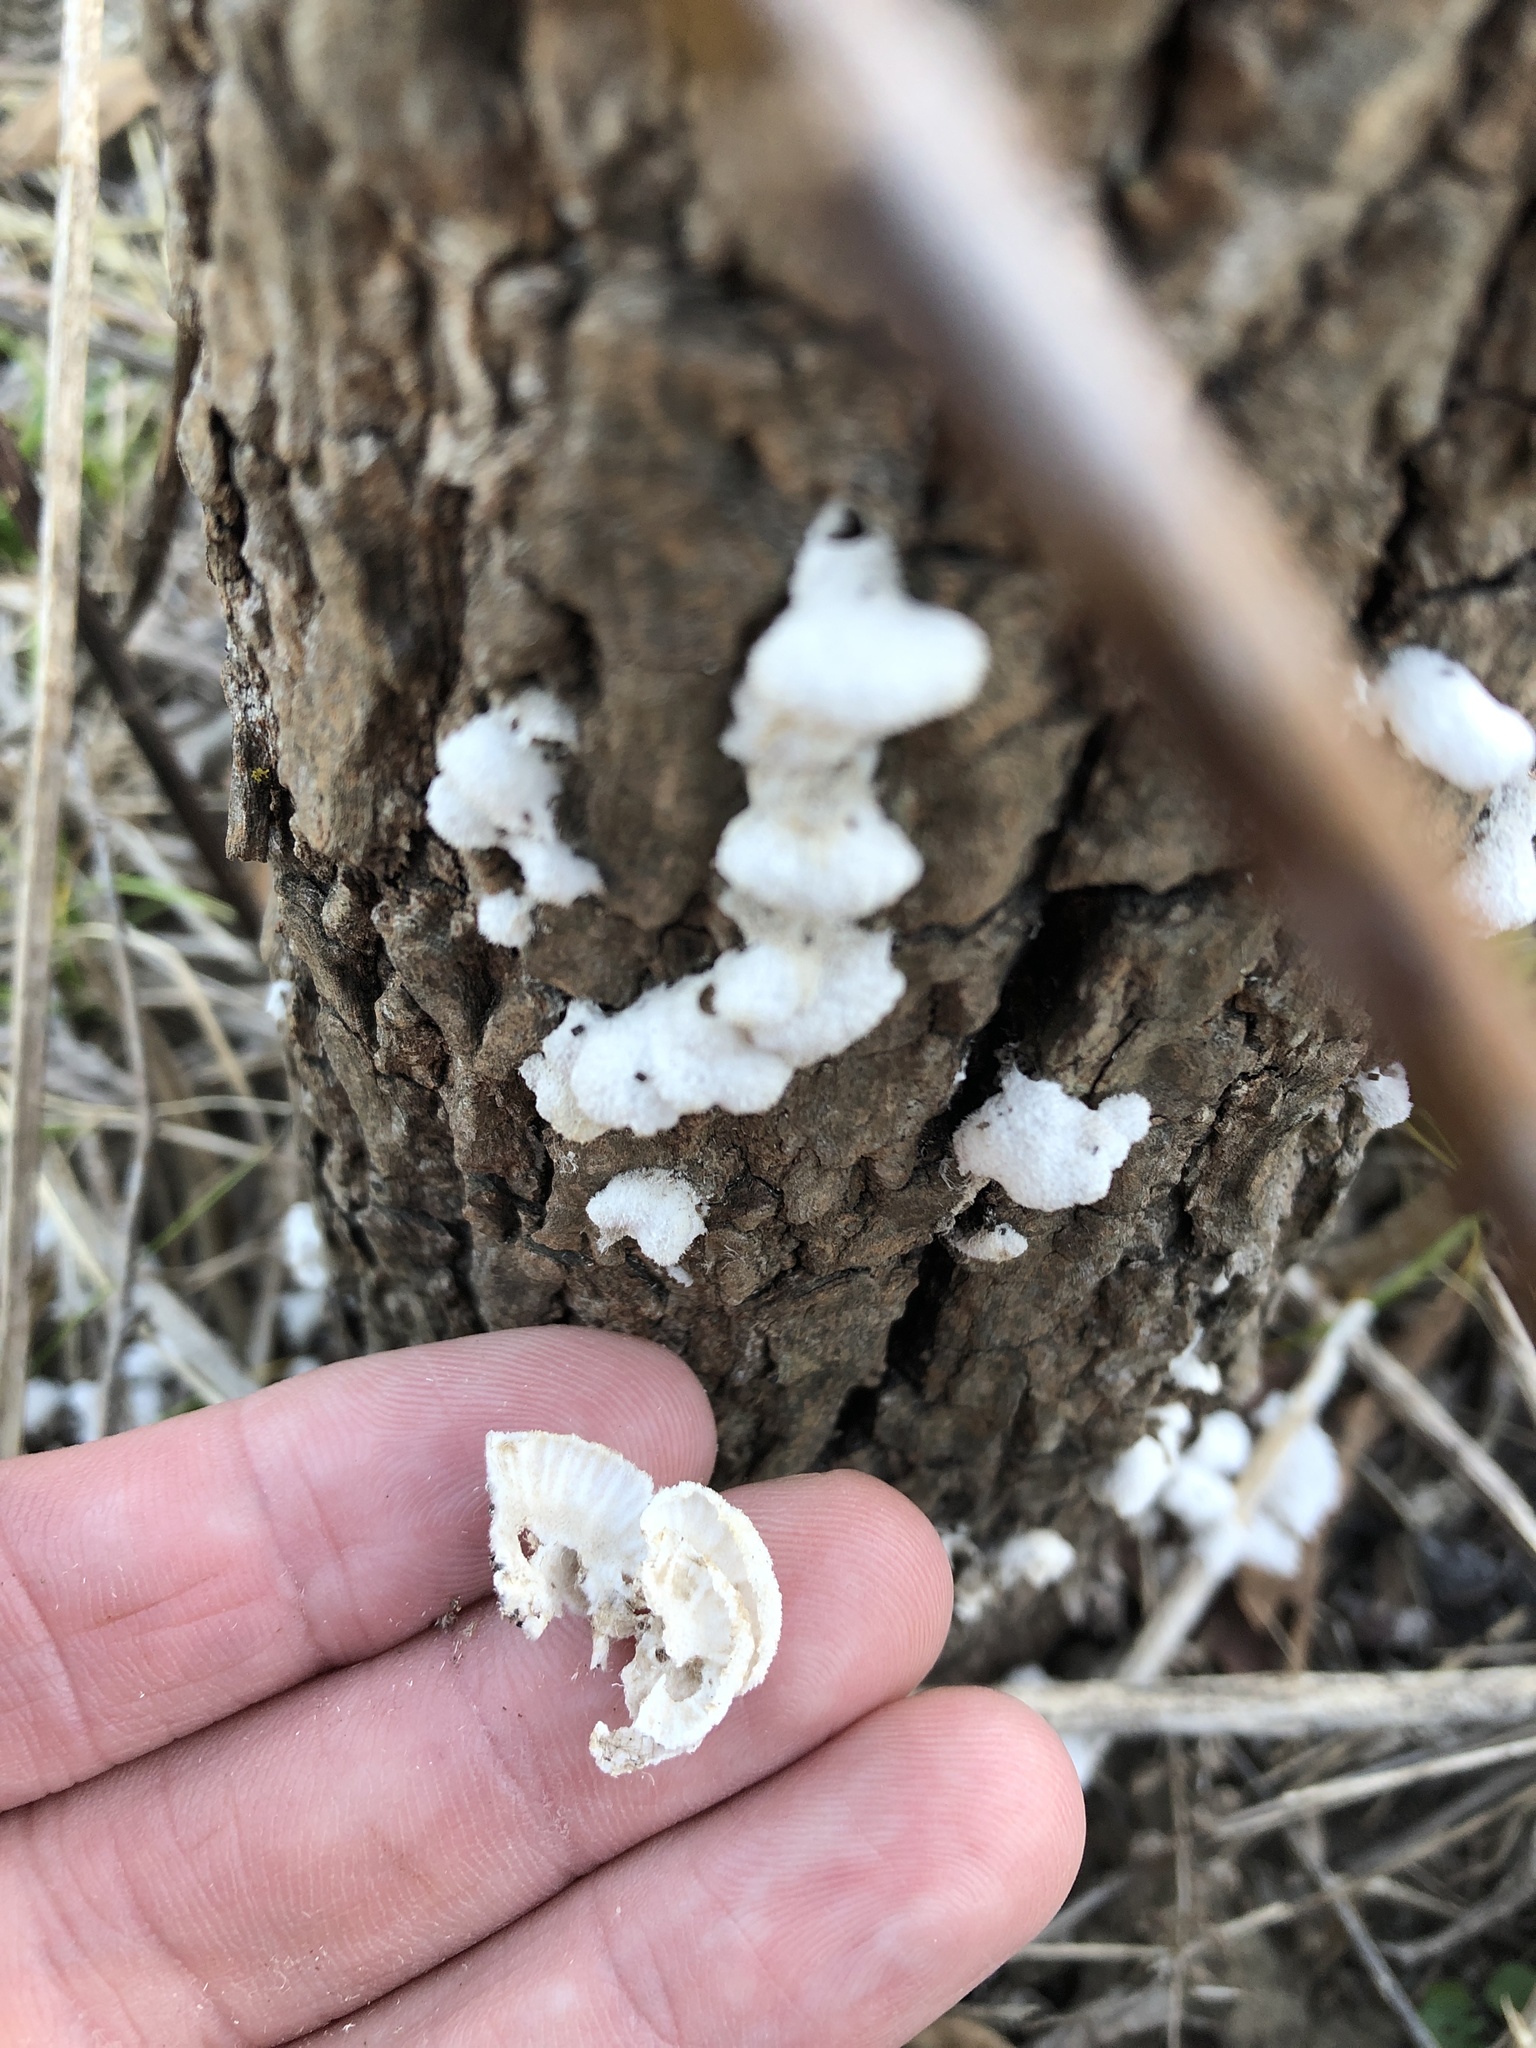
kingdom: Fungi
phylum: Basidiomycota
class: Agaricomycetes
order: Agaricales
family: Schizophyllaceae
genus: Schizophyllum
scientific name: Schizophyllum commune
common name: Common porecrust
